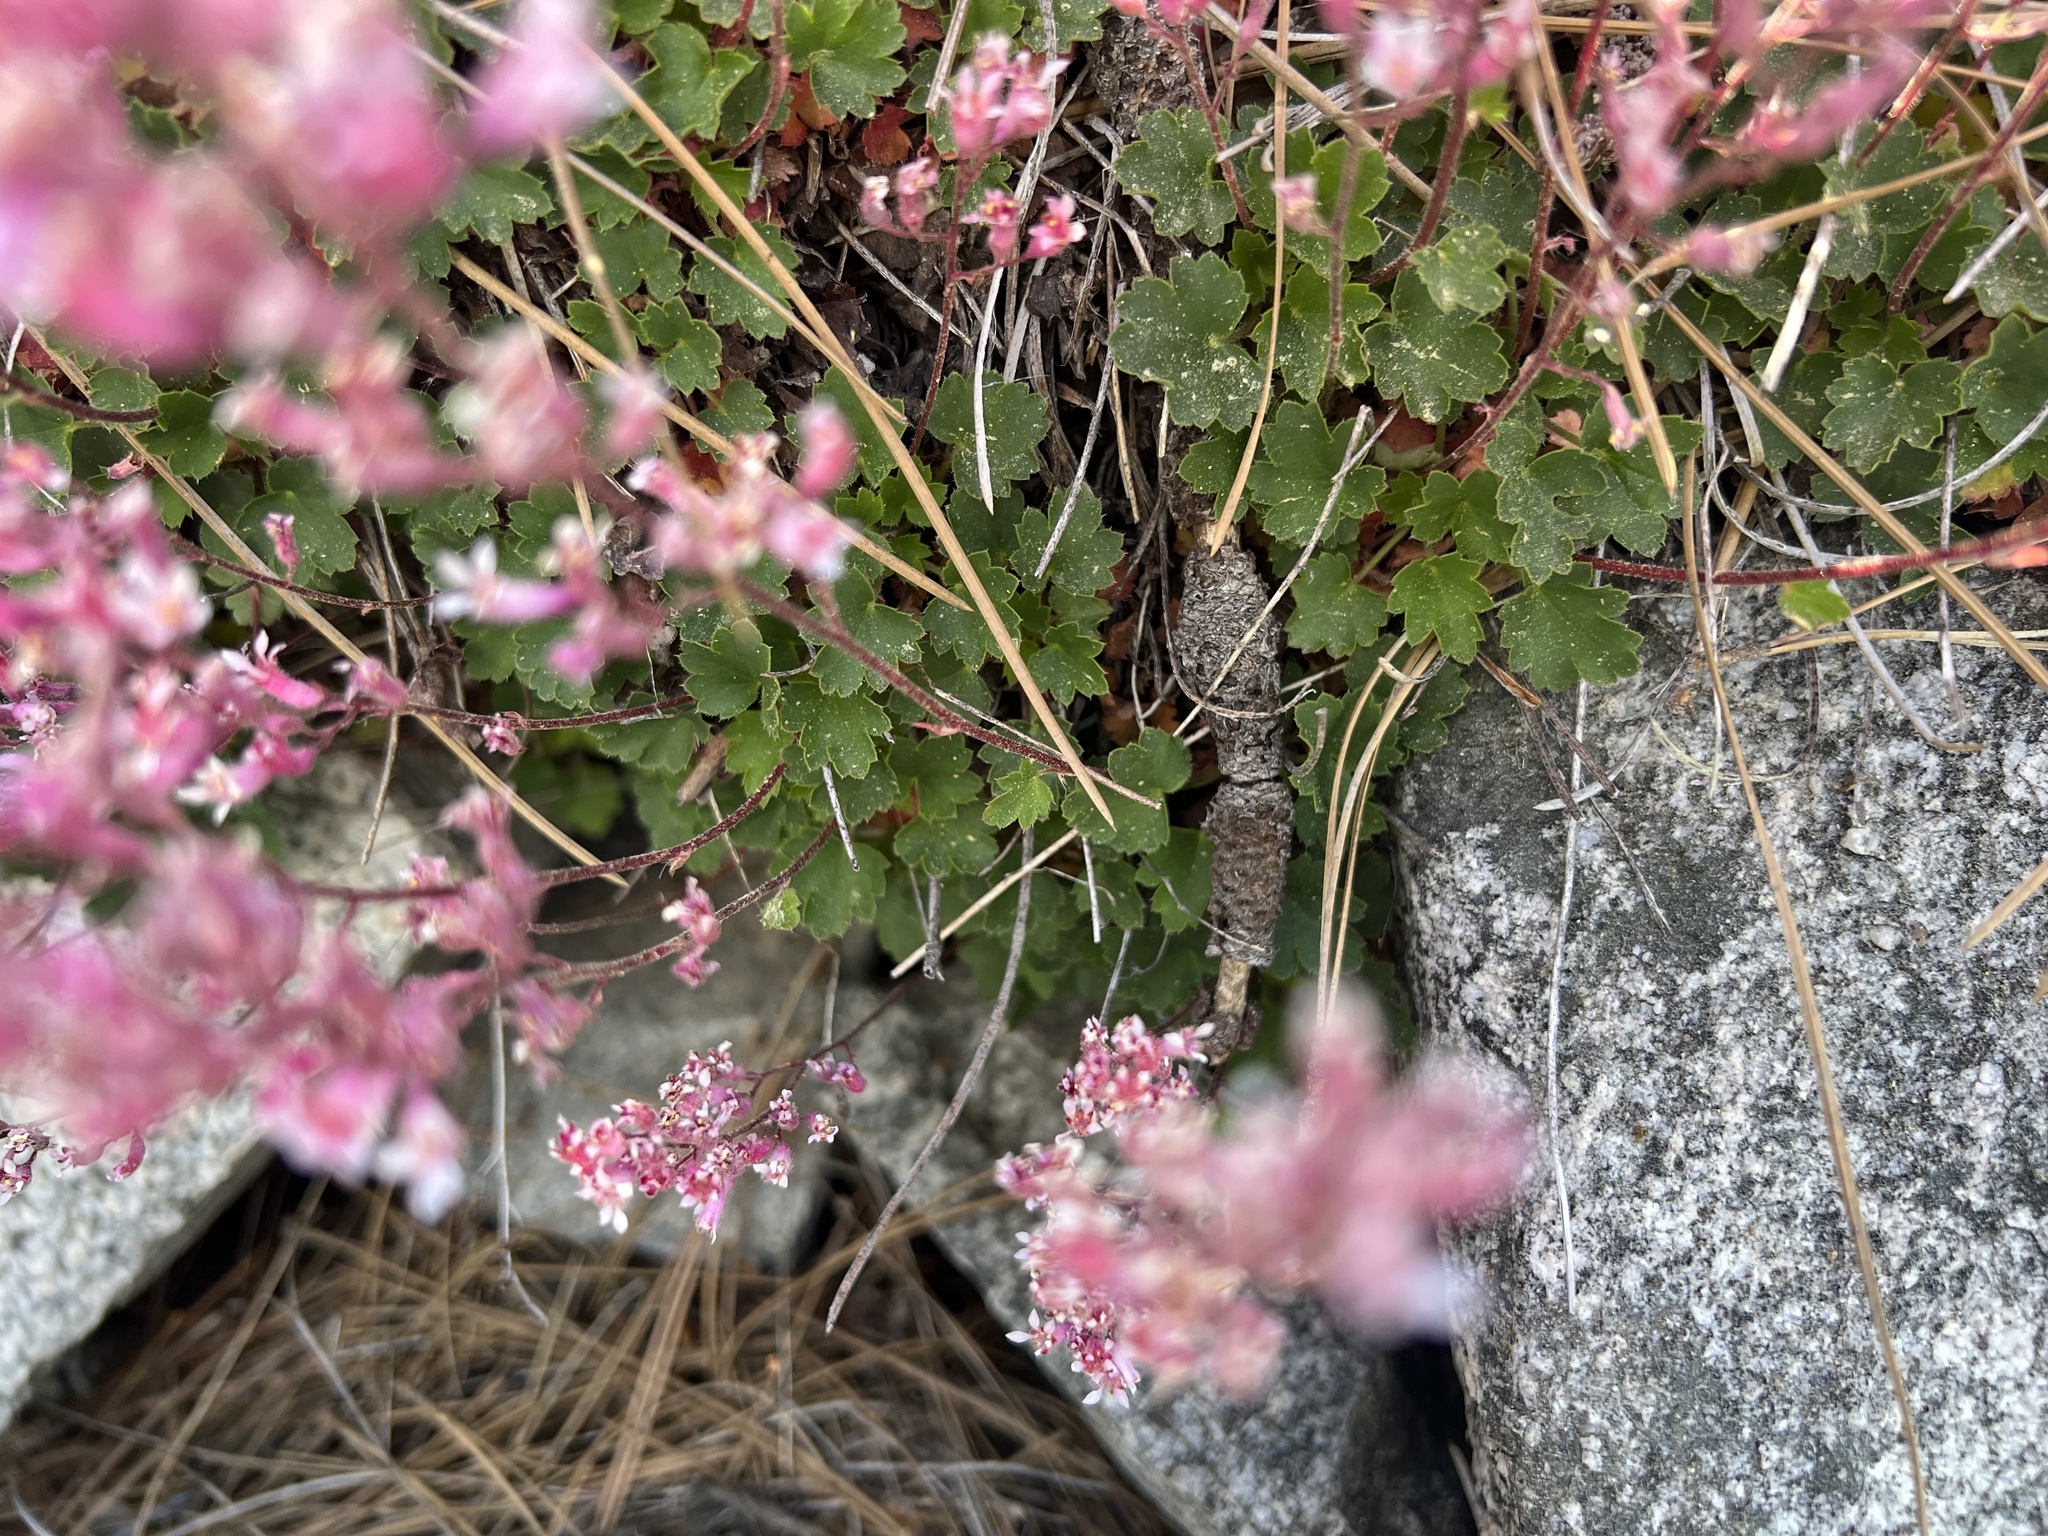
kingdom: Plantae
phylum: Tracheophyta
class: Magnoliopsida
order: Saxifragales
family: Saxifragaceae
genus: Heuchera
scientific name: Heuchera elegans
